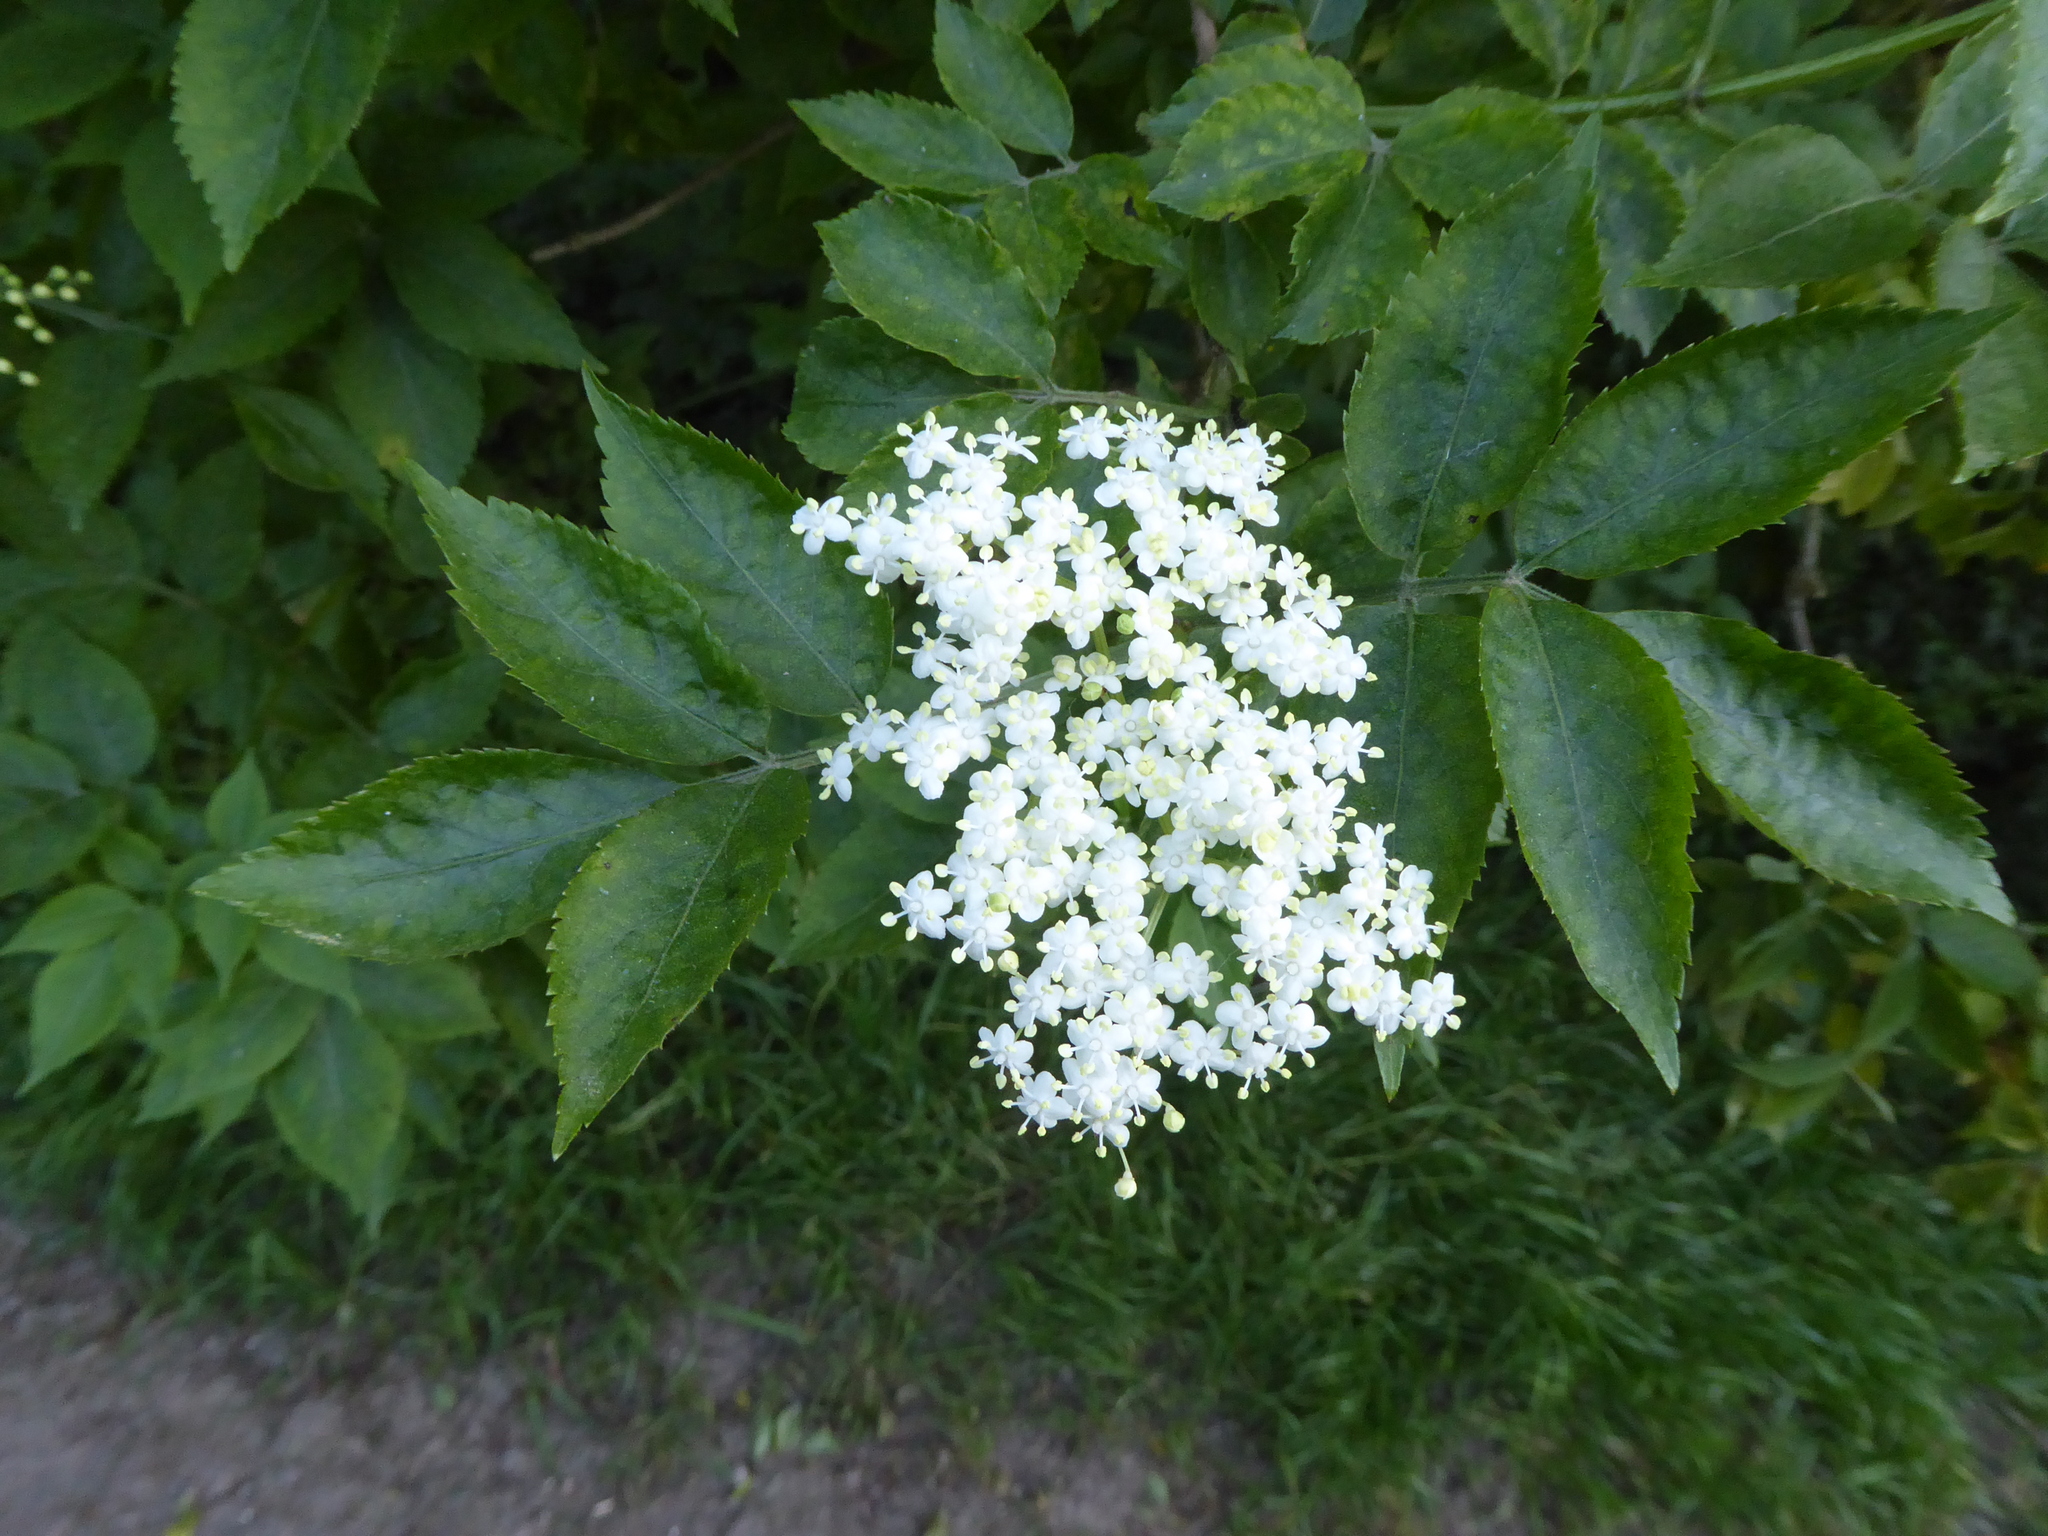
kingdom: Plantae
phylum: Tracheophyta
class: Magnoliopsida
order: Dipsacales
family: Viburnaceae
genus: Sambucus
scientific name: Sambucus nigra
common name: Elder
